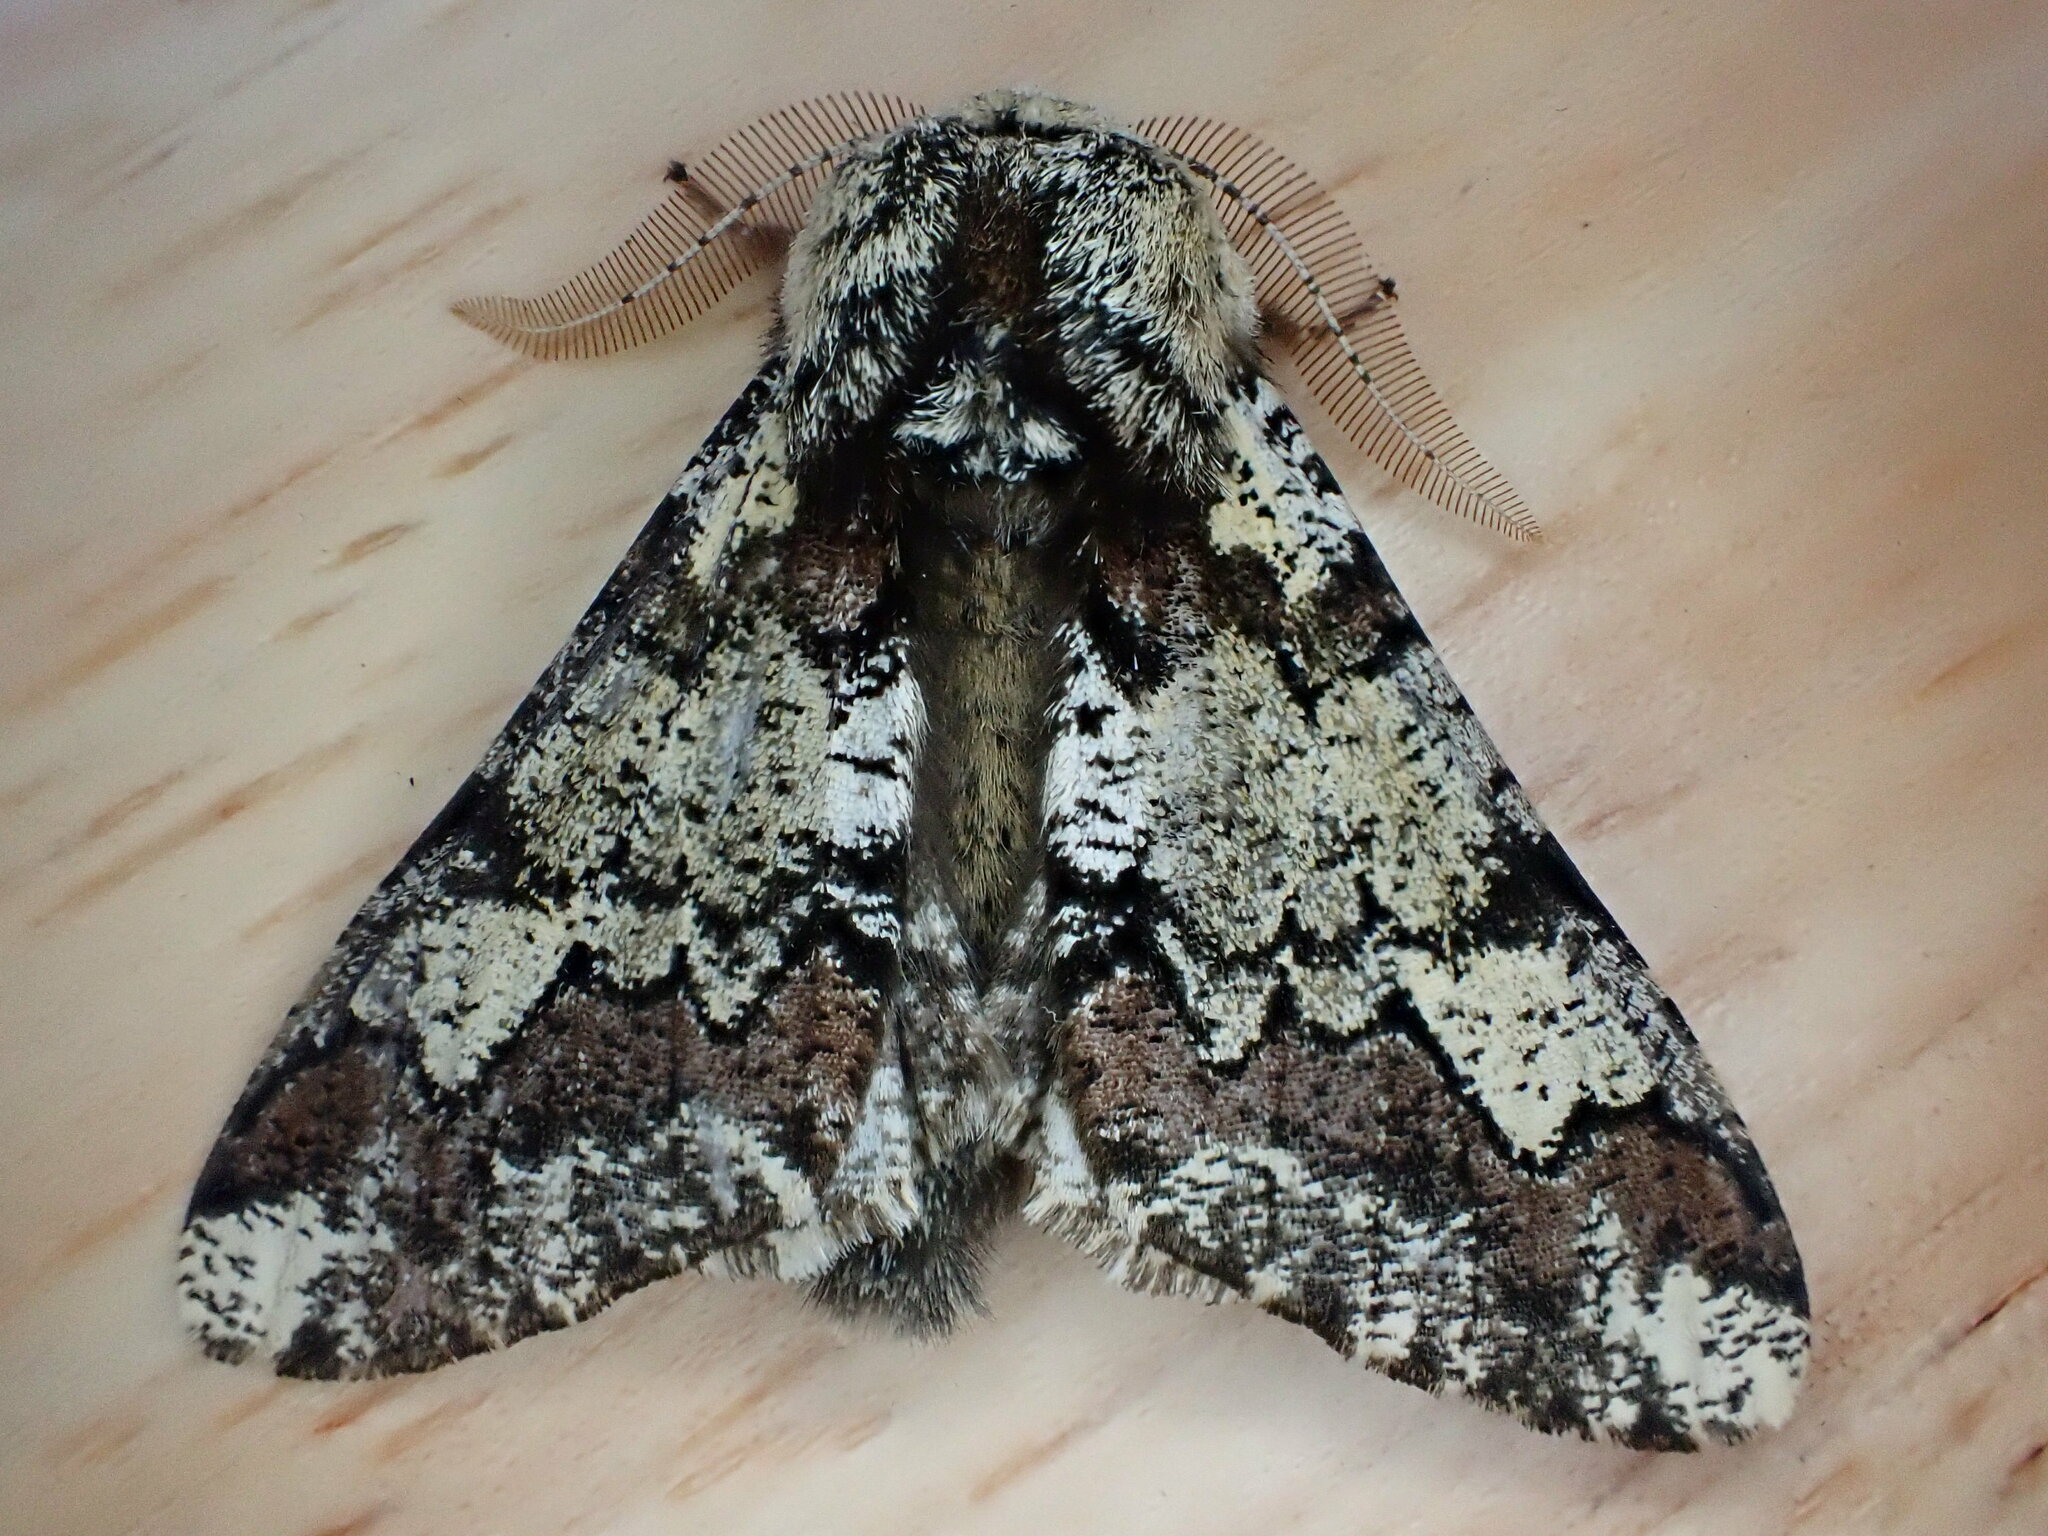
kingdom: Animalia
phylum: Arthropoda
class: Insecta
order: Lepidoptera
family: Geometridae
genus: Biston
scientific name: Biston strataria
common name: Oak beauty
